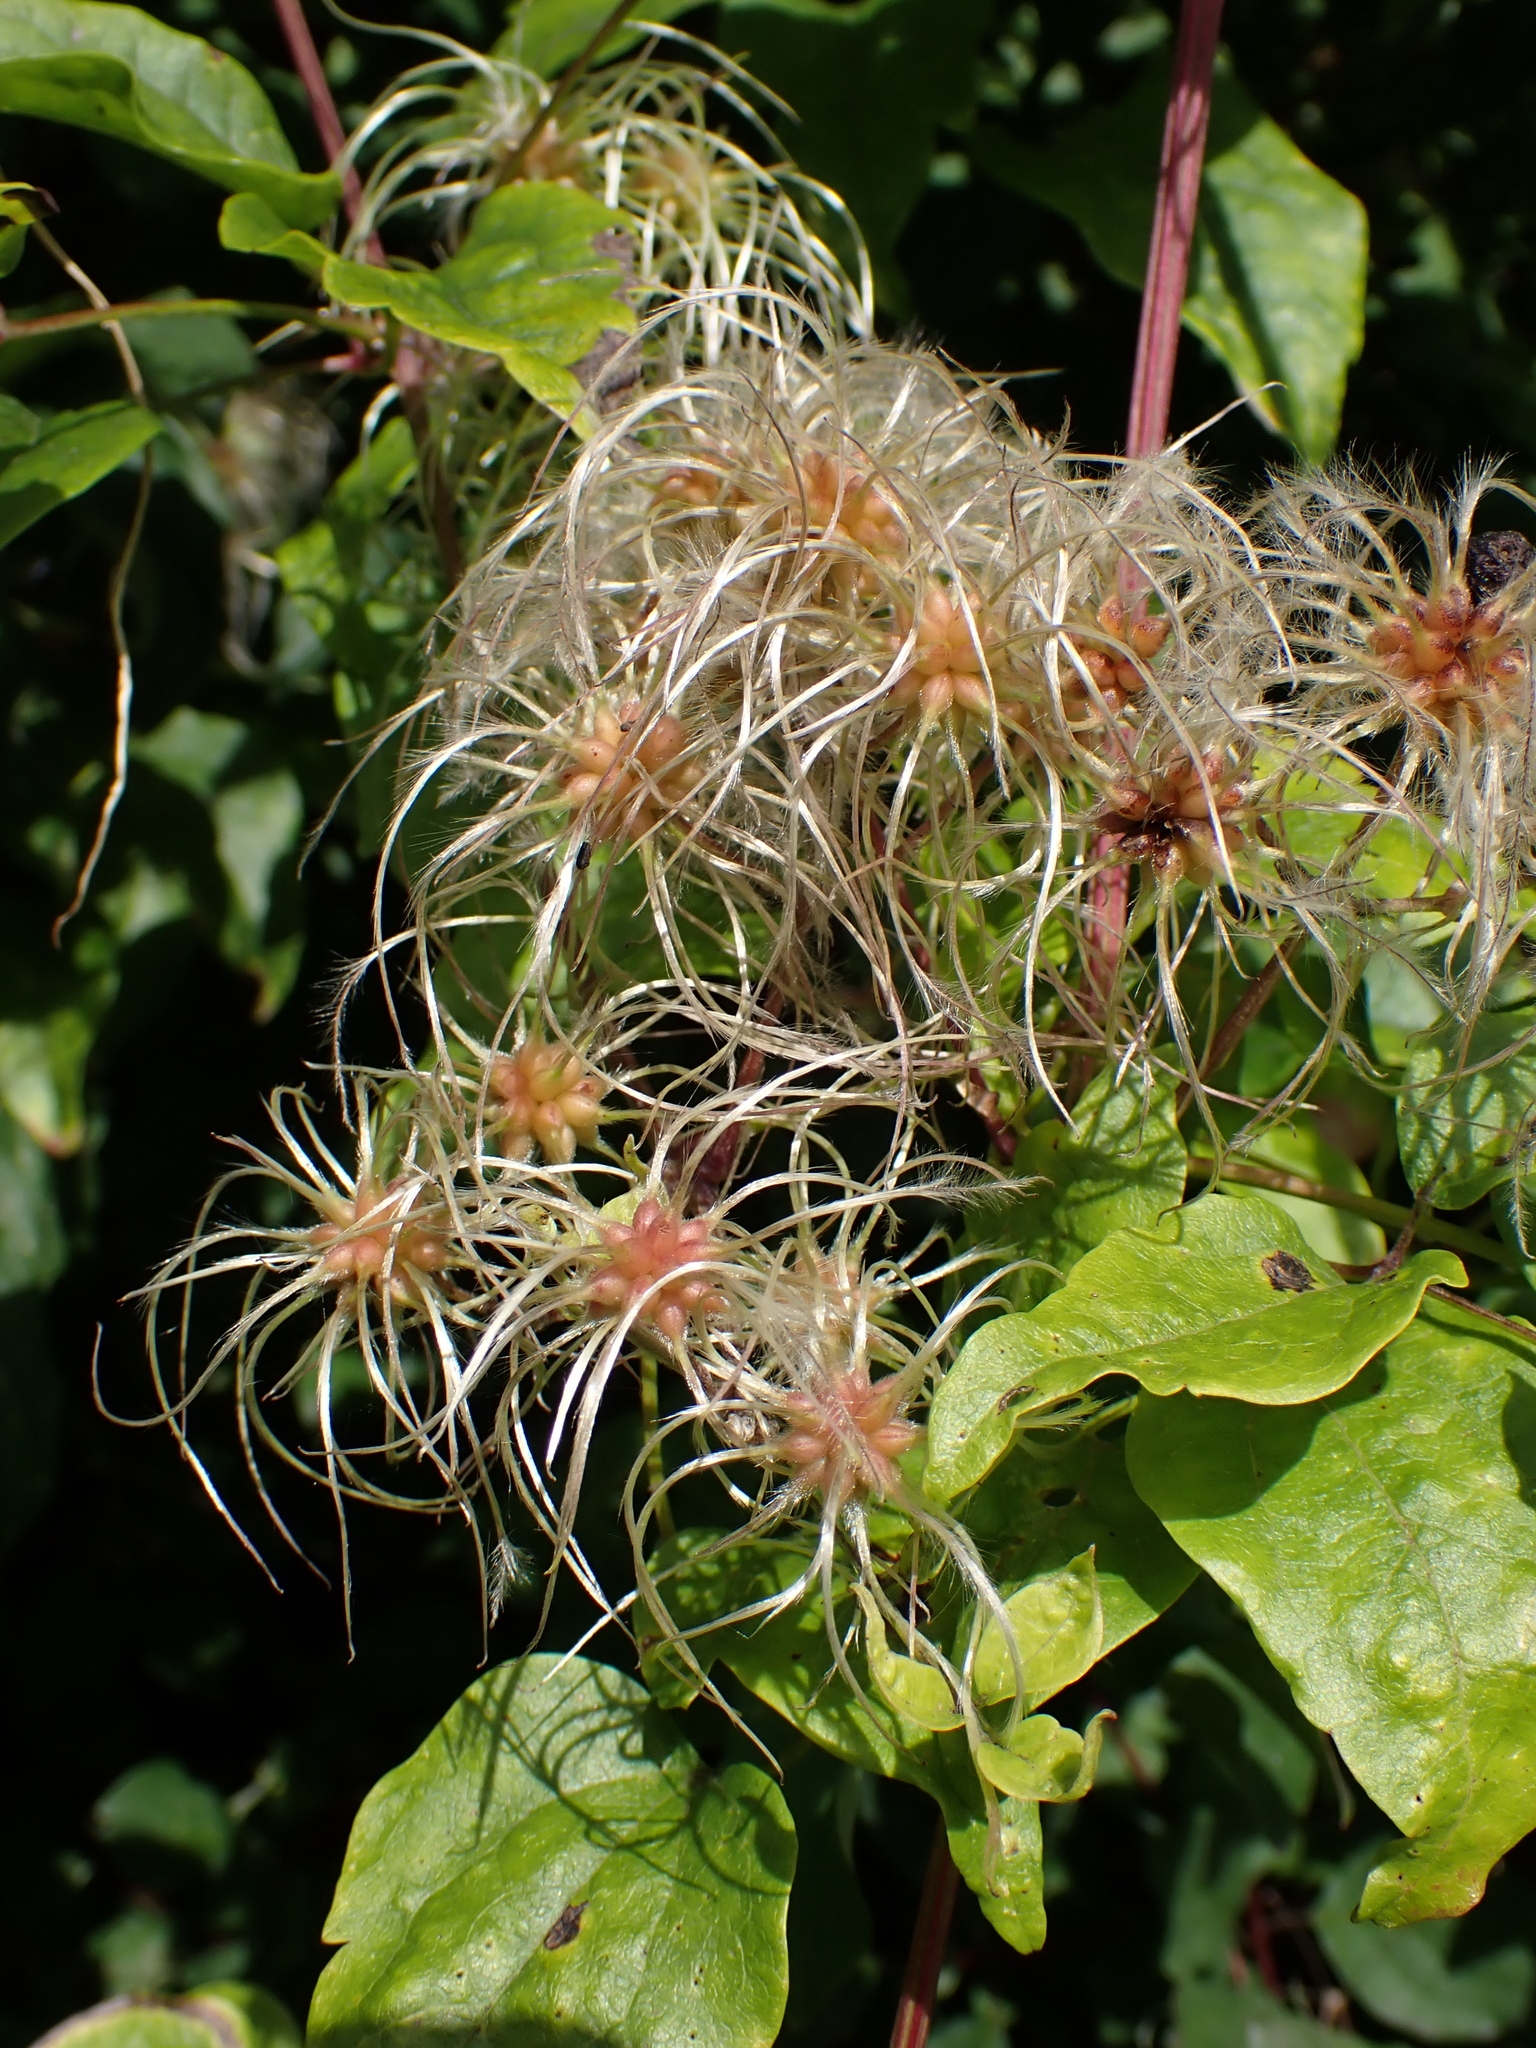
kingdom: Plantae
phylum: Tracheophyta
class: Magnoliopsida
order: Ranunculales
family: Ranunculaceae
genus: Clematis
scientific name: Clematis vitalba
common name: Evergreen clematis
